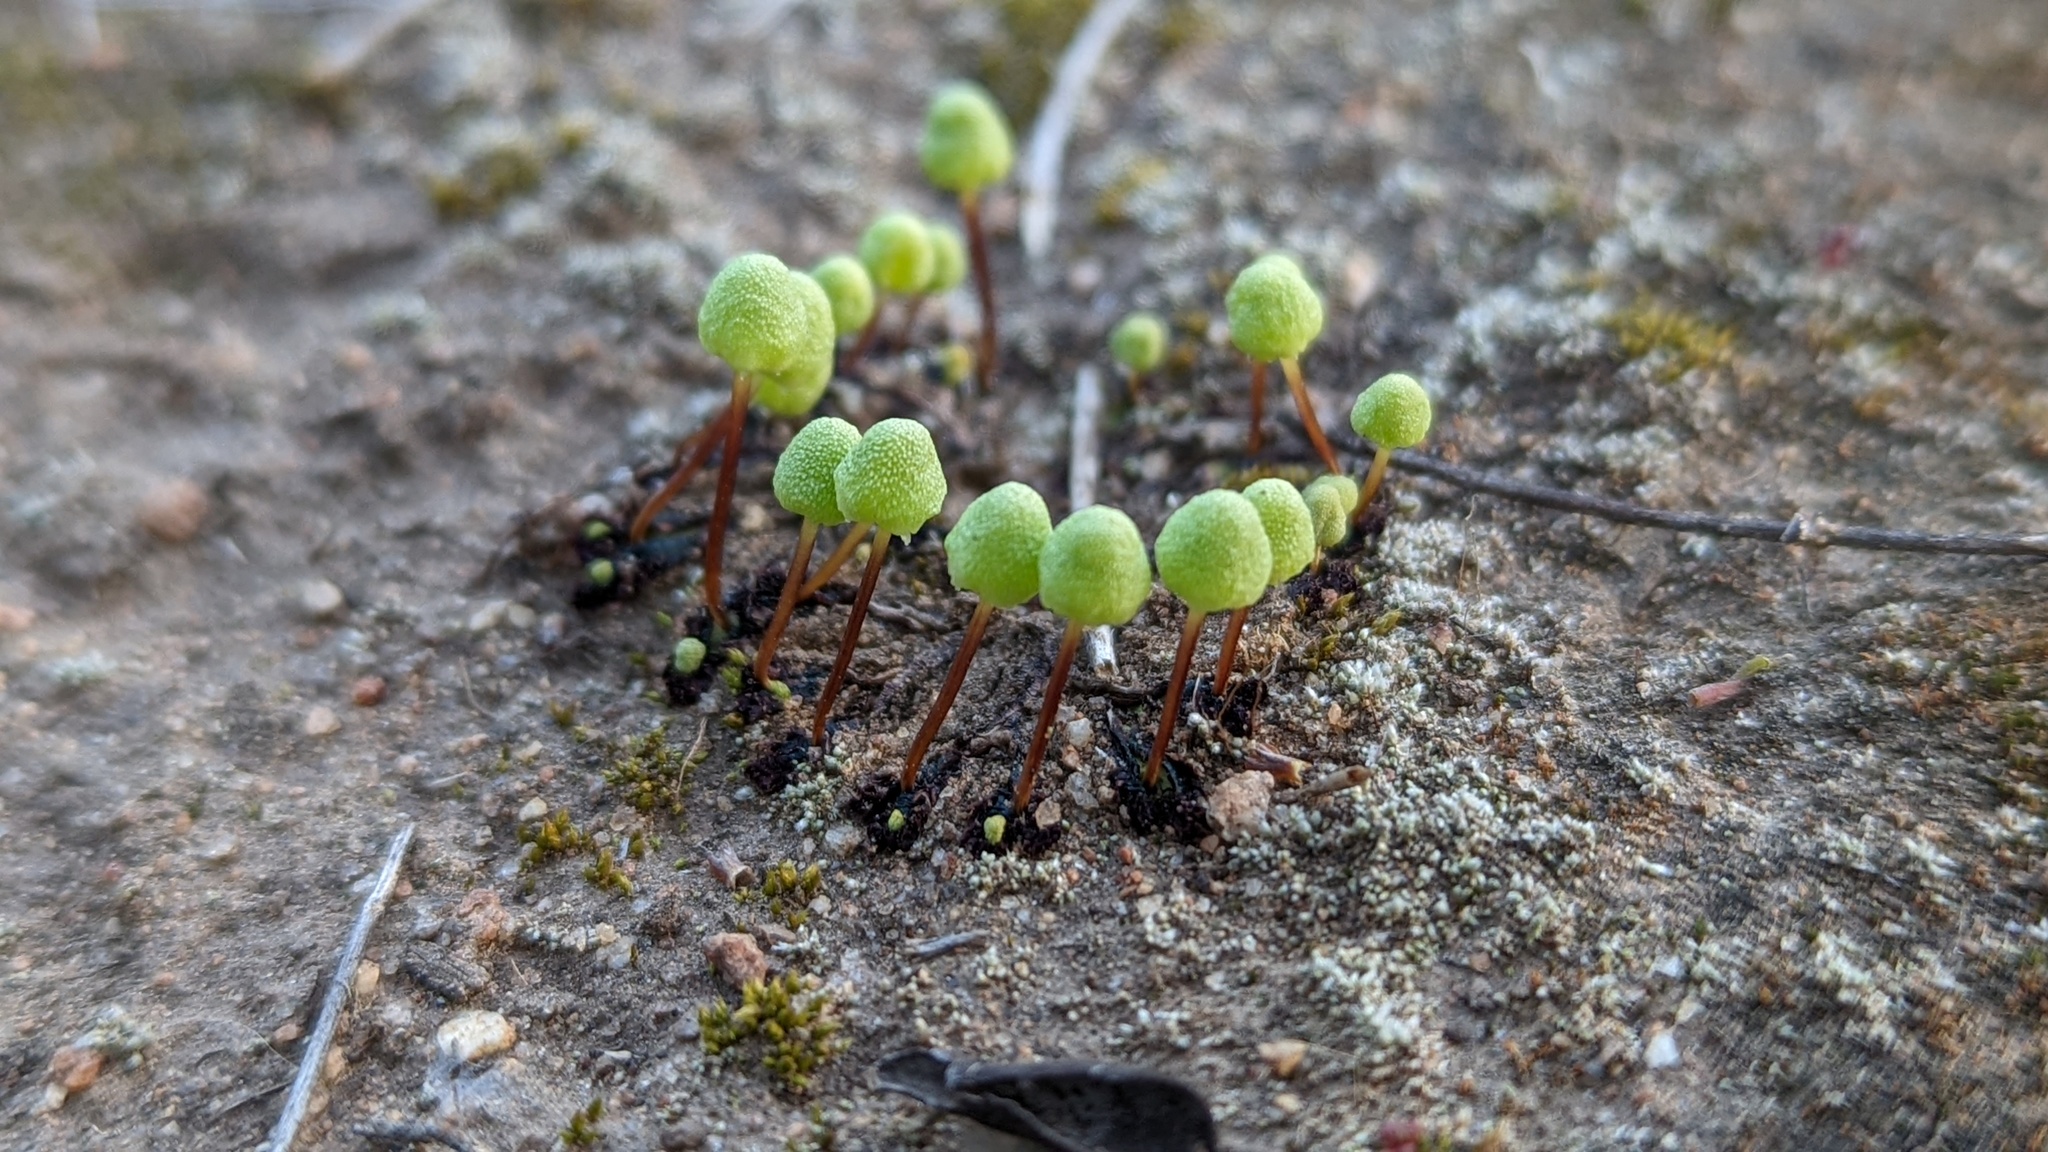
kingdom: Plantae
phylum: Marchantiophyta
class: Marchantiopsida
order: Marchantiales
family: Aytoniaceae
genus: Asterella
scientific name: Asterella palmeri
